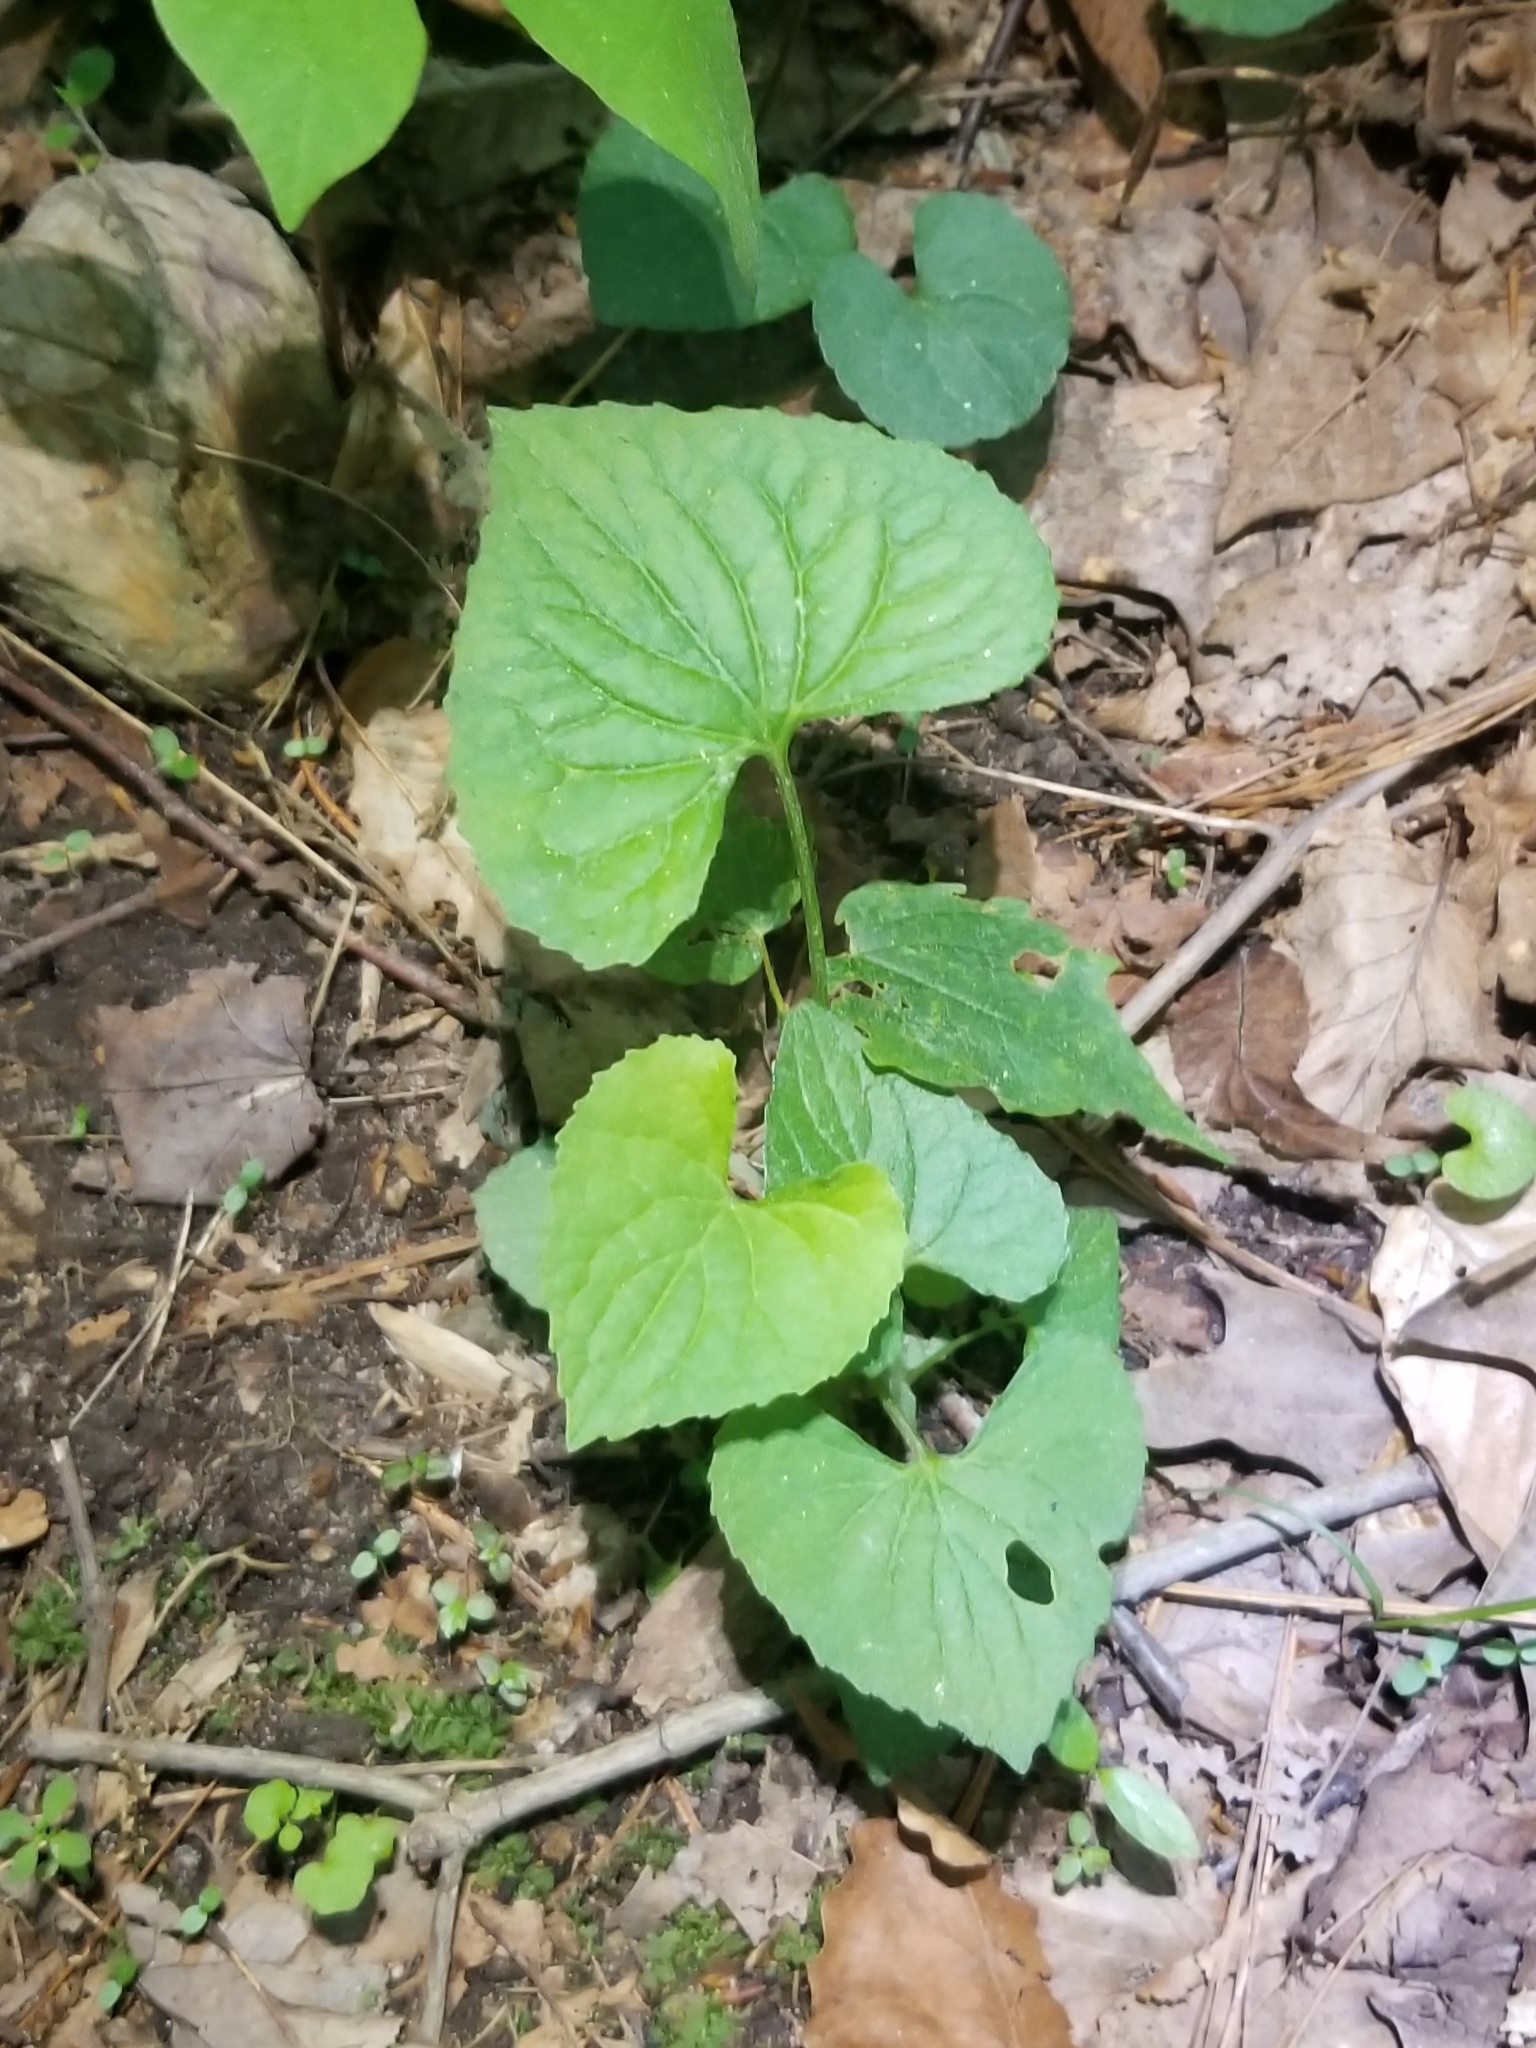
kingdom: Plantae
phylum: Tracheophyta
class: Magnoliopsida
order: Malpighiales
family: Violaceae
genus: Viola
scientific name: Viola sororia
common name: Dooryard violet
